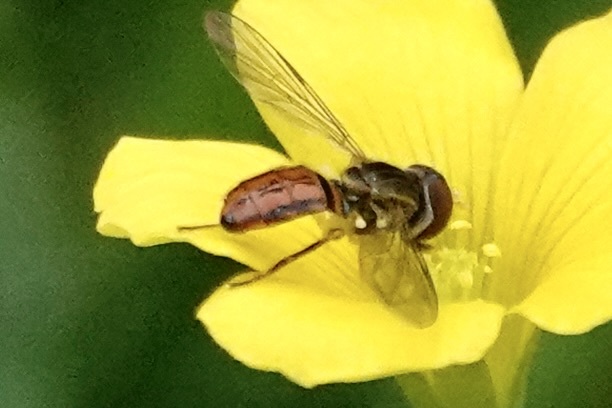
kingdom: Animalia
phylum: Arthropoda
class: Insecta
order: Diptera
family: Syrphidae
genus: Toxomerus
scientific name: Toxomerus boscii
